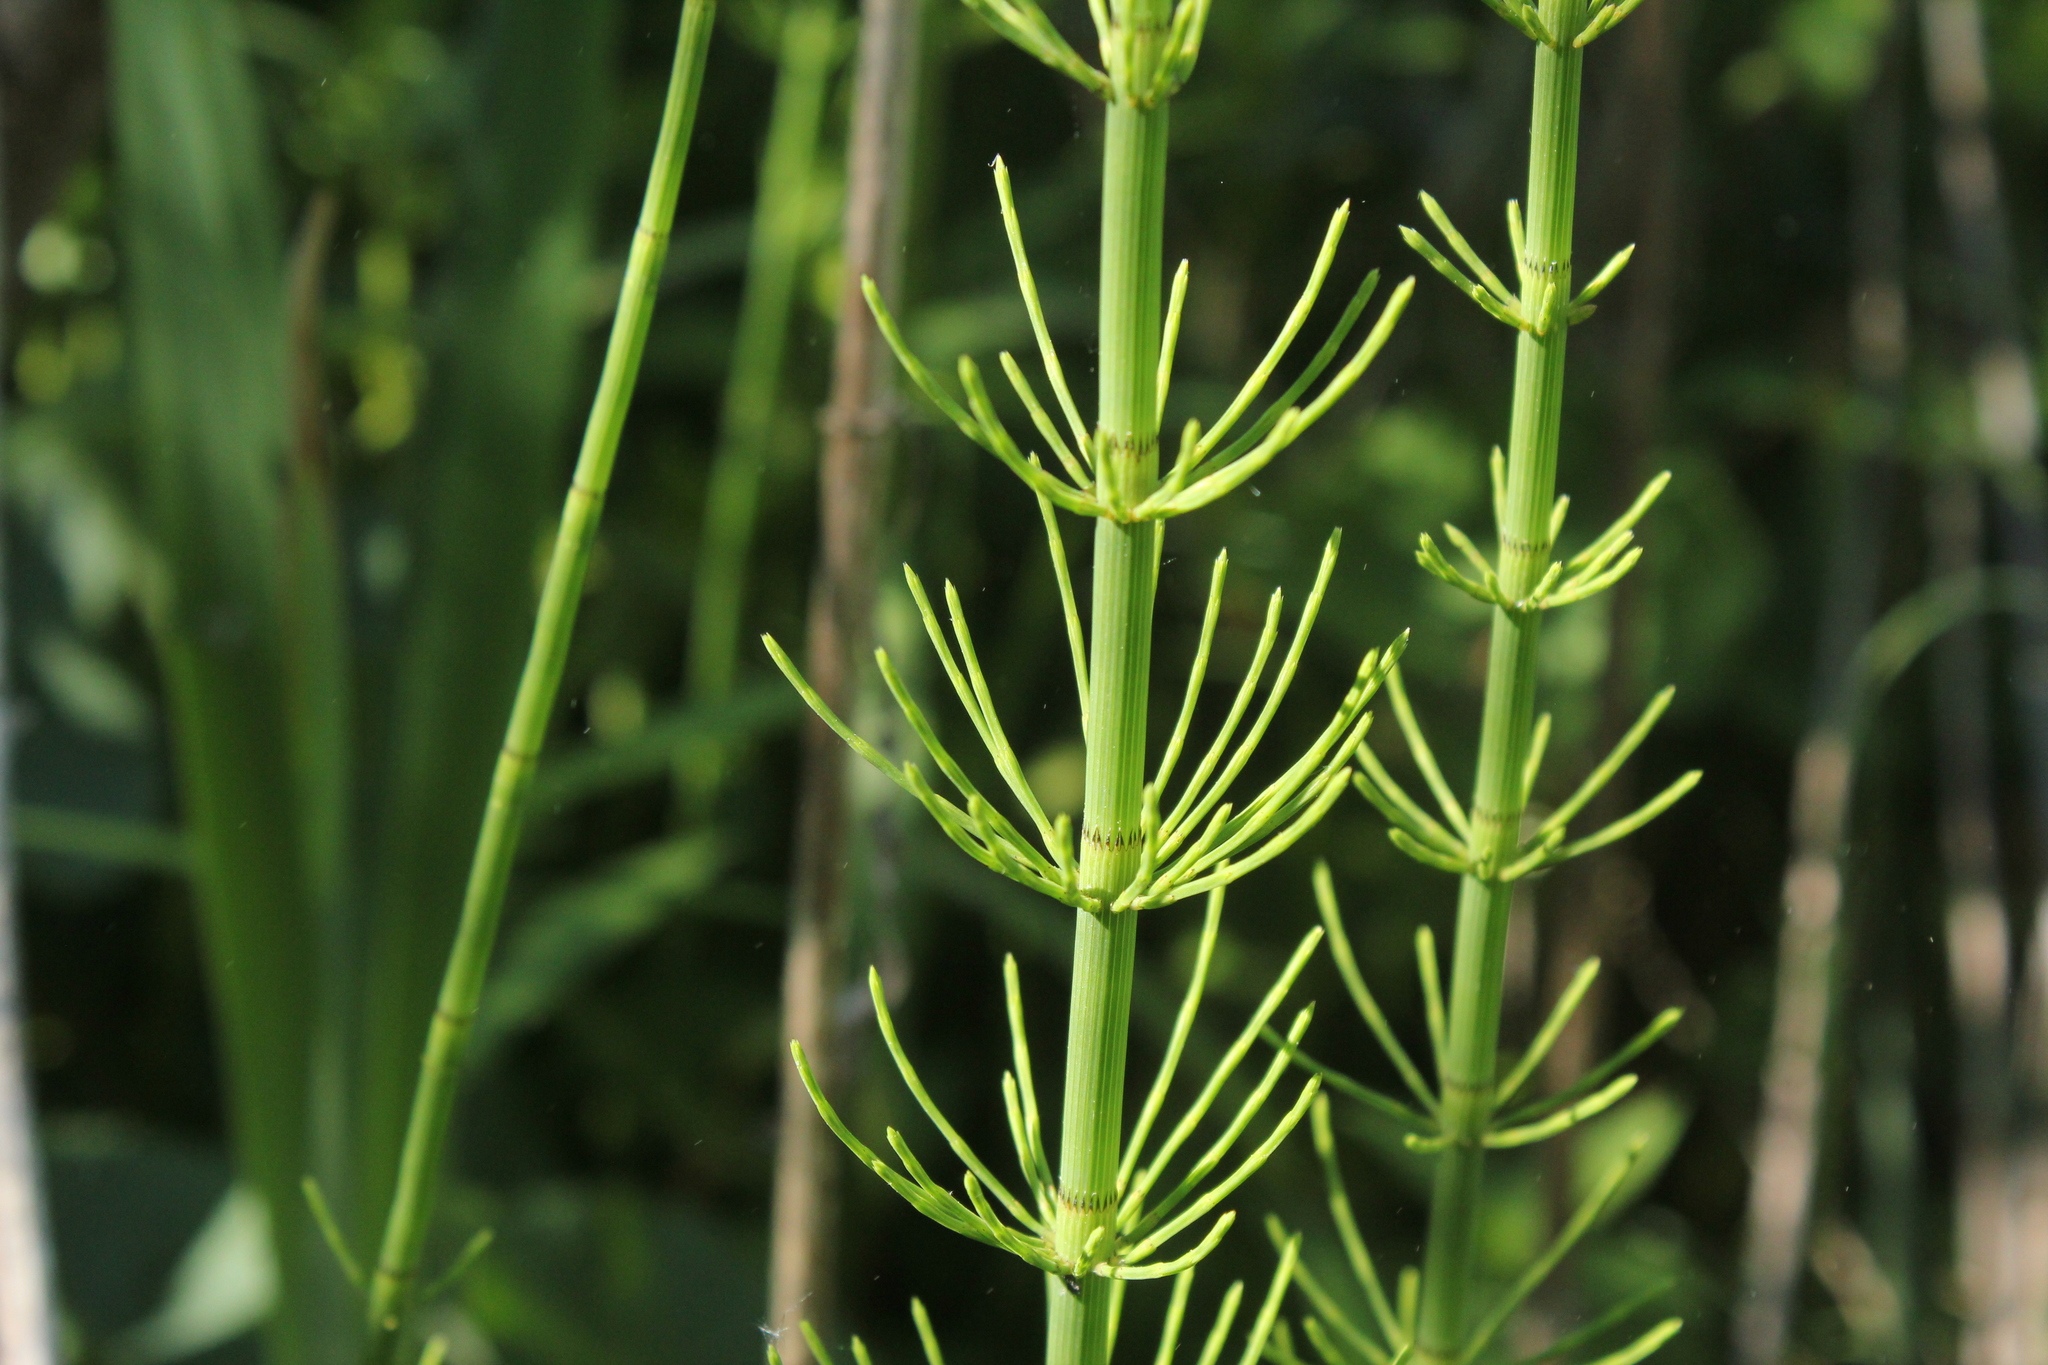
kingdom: Plantae
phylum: Tracheophyta
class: Polypodiopsida
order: Equisetales
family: Equisetaceae
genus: Equisetum
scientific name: Equisetum fluviatile
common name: Water horsetail
